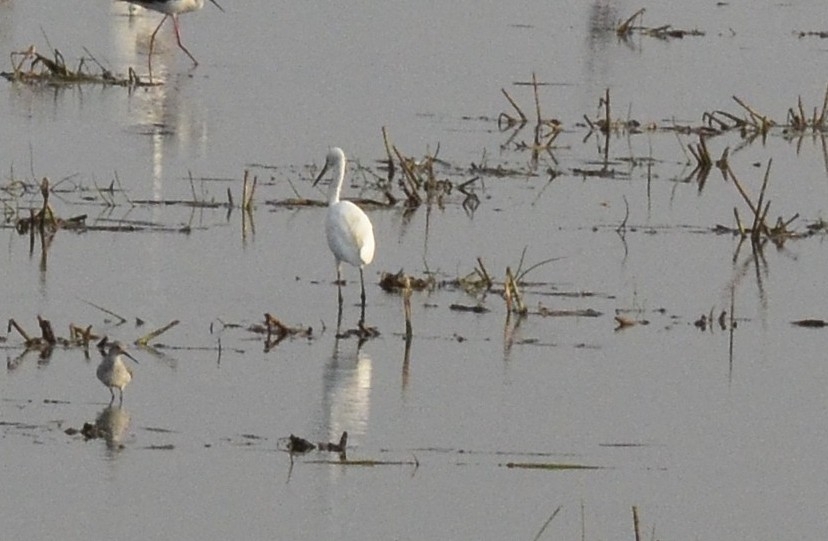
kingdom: Animalia
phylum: Chordata
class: Aves
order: Pelecaniformes
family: Ardeidae
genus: Egretta
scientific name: Egretta garzetta
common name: Little egret
